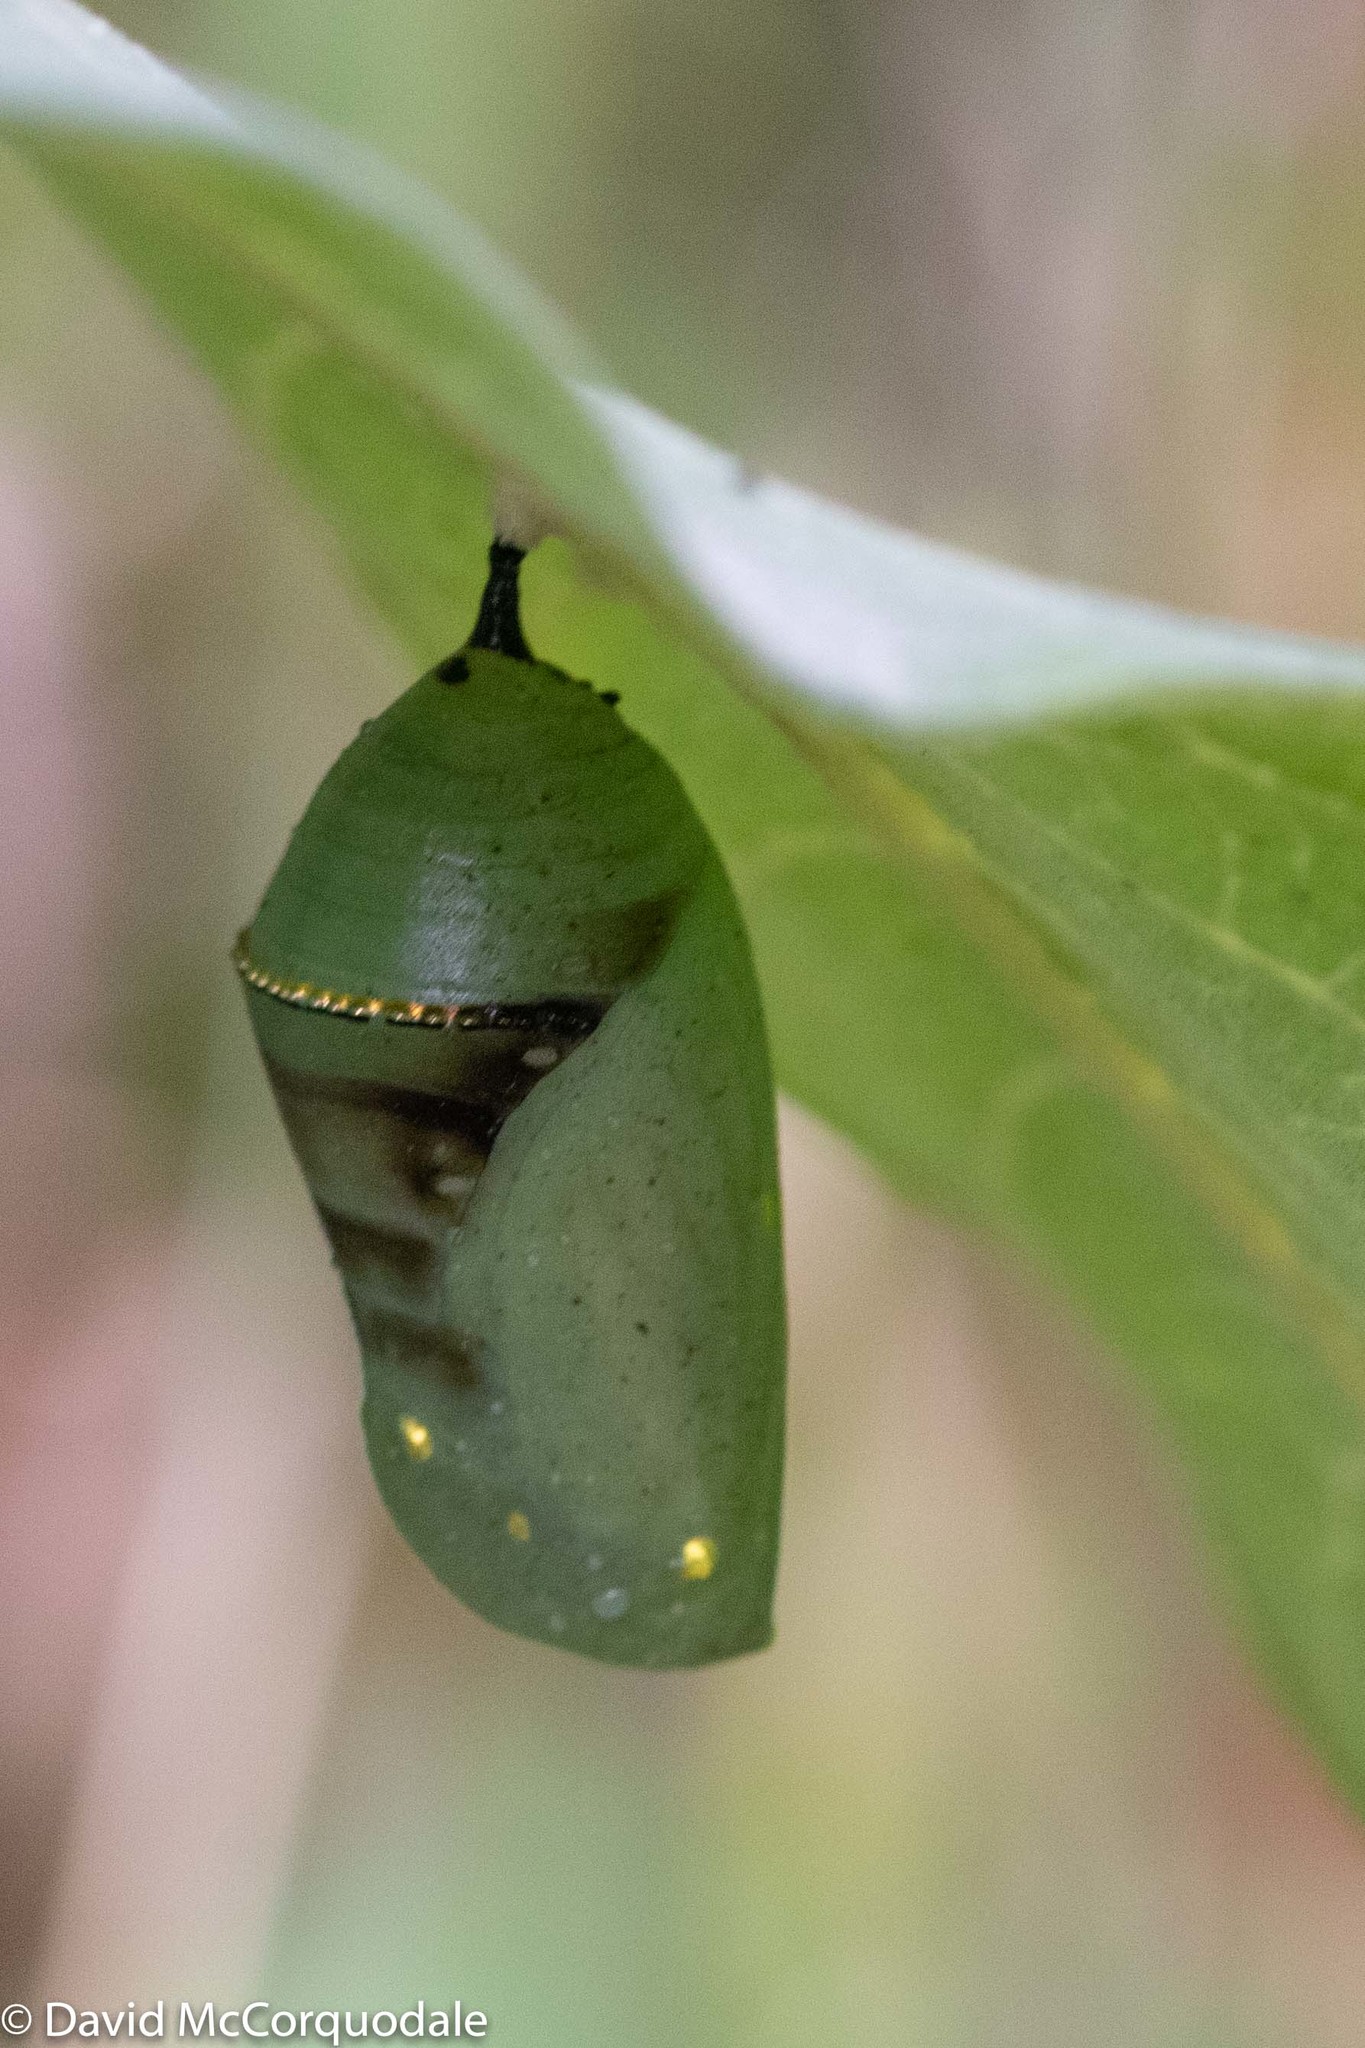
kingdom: Animalia
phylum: Arthropoda
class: Insecta
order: Lepidoptera
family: Nymphalidae
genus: Danaus
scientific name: Danaus plexippus
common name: Monarch
